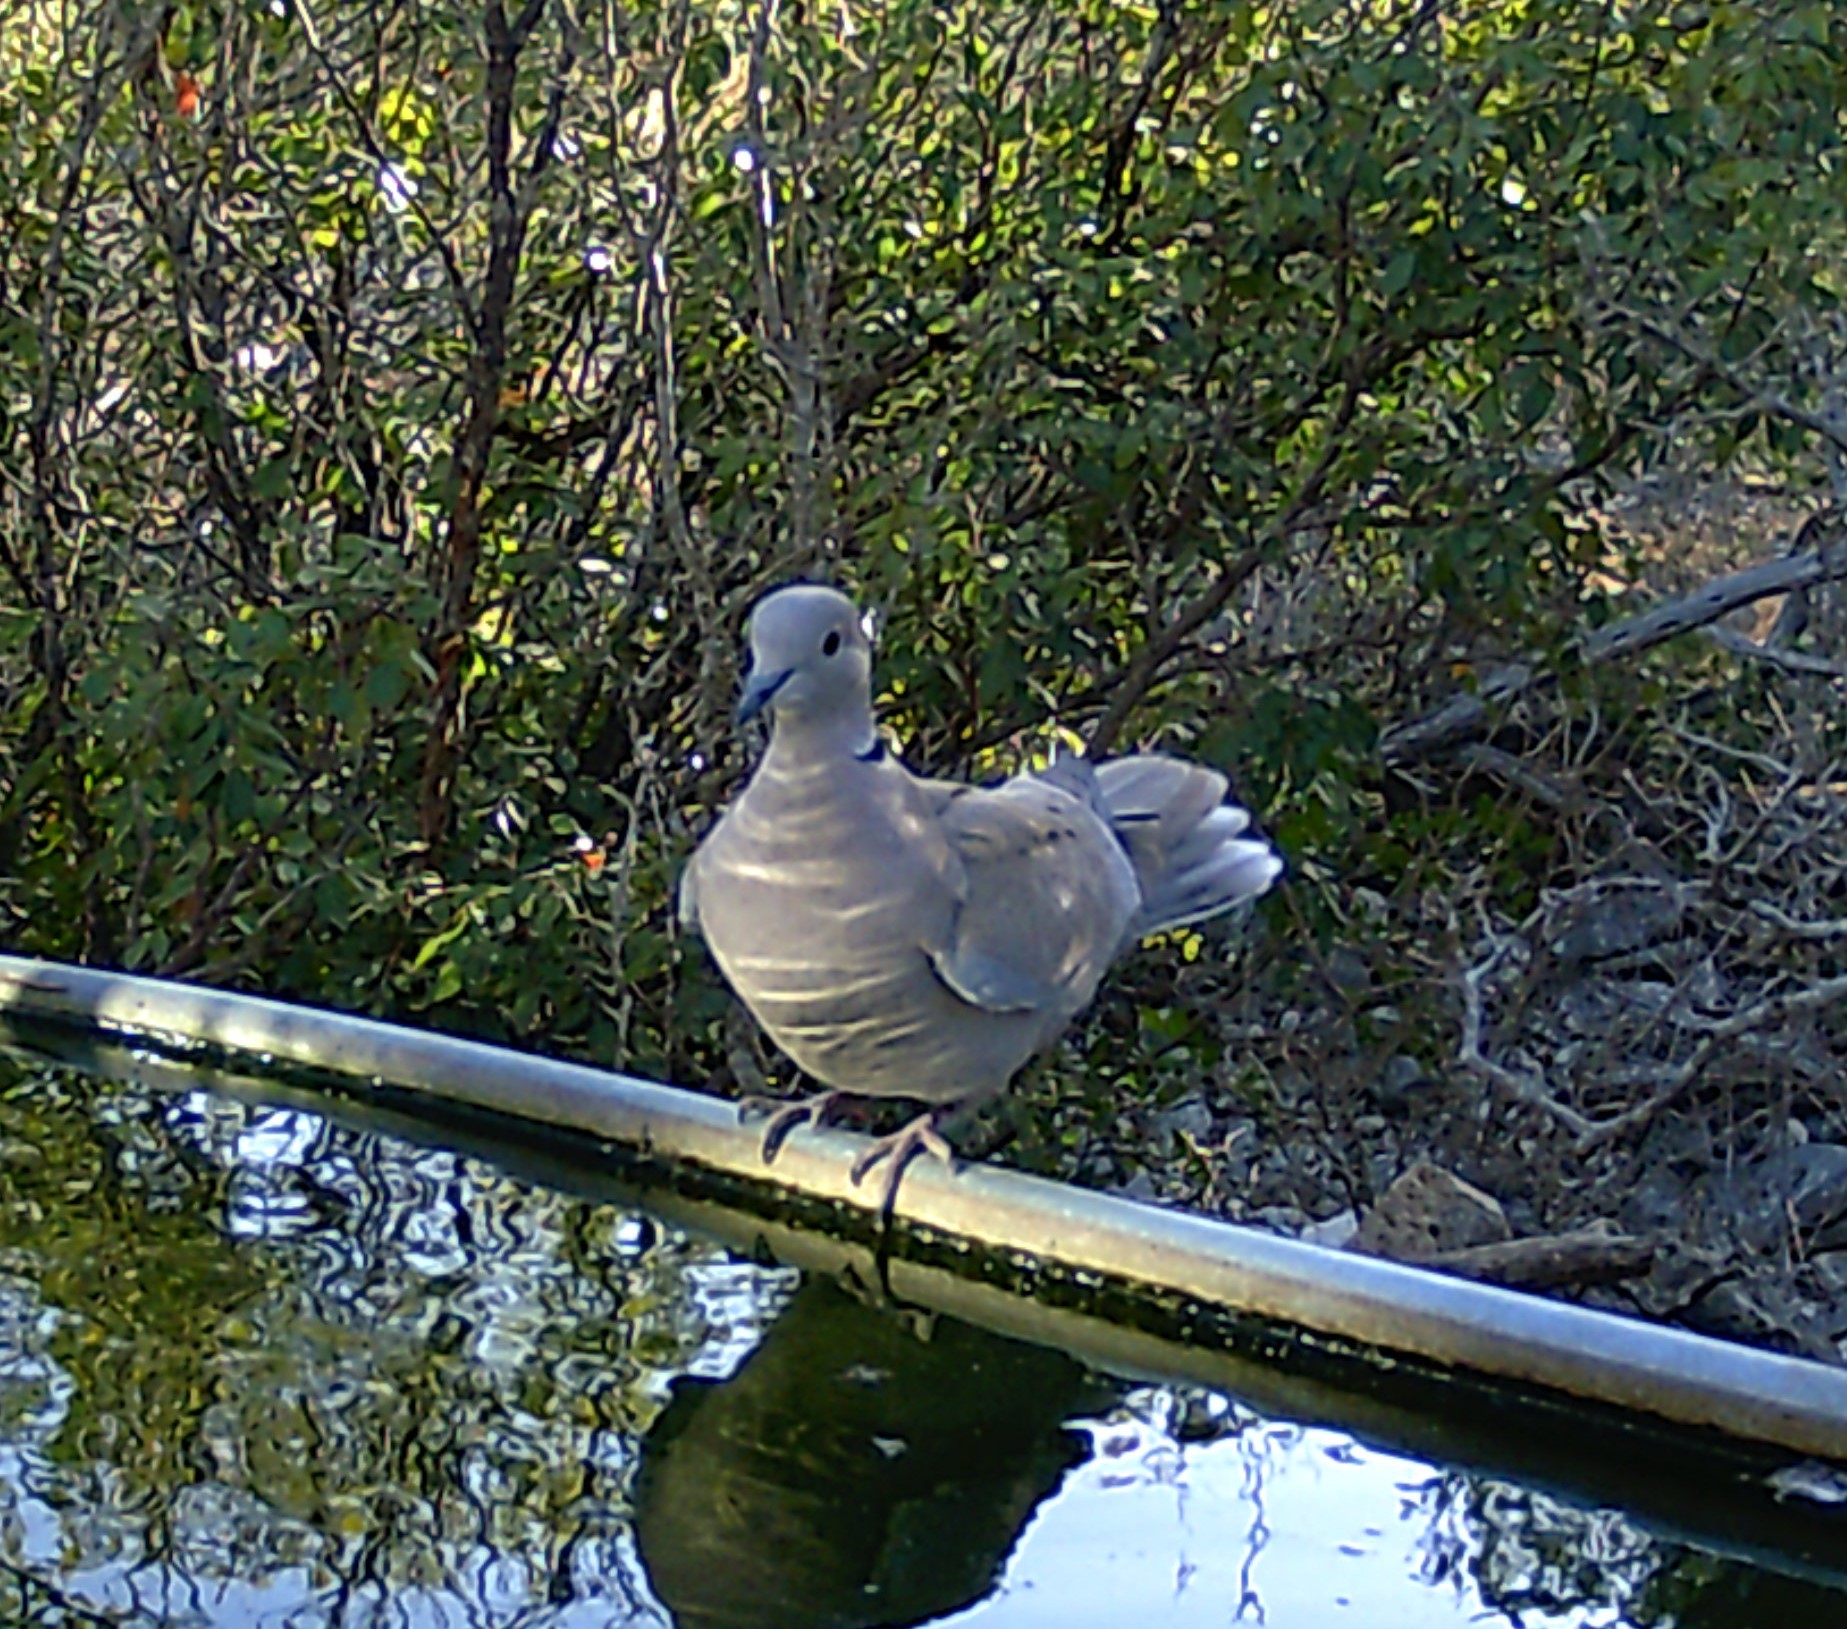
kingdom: Animalia
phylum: Chordata
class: Aves
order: Columbiformes
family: Columbidae
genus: Streptopelia
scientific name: Streptopelia decaocto
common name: Eurasian collared dove
